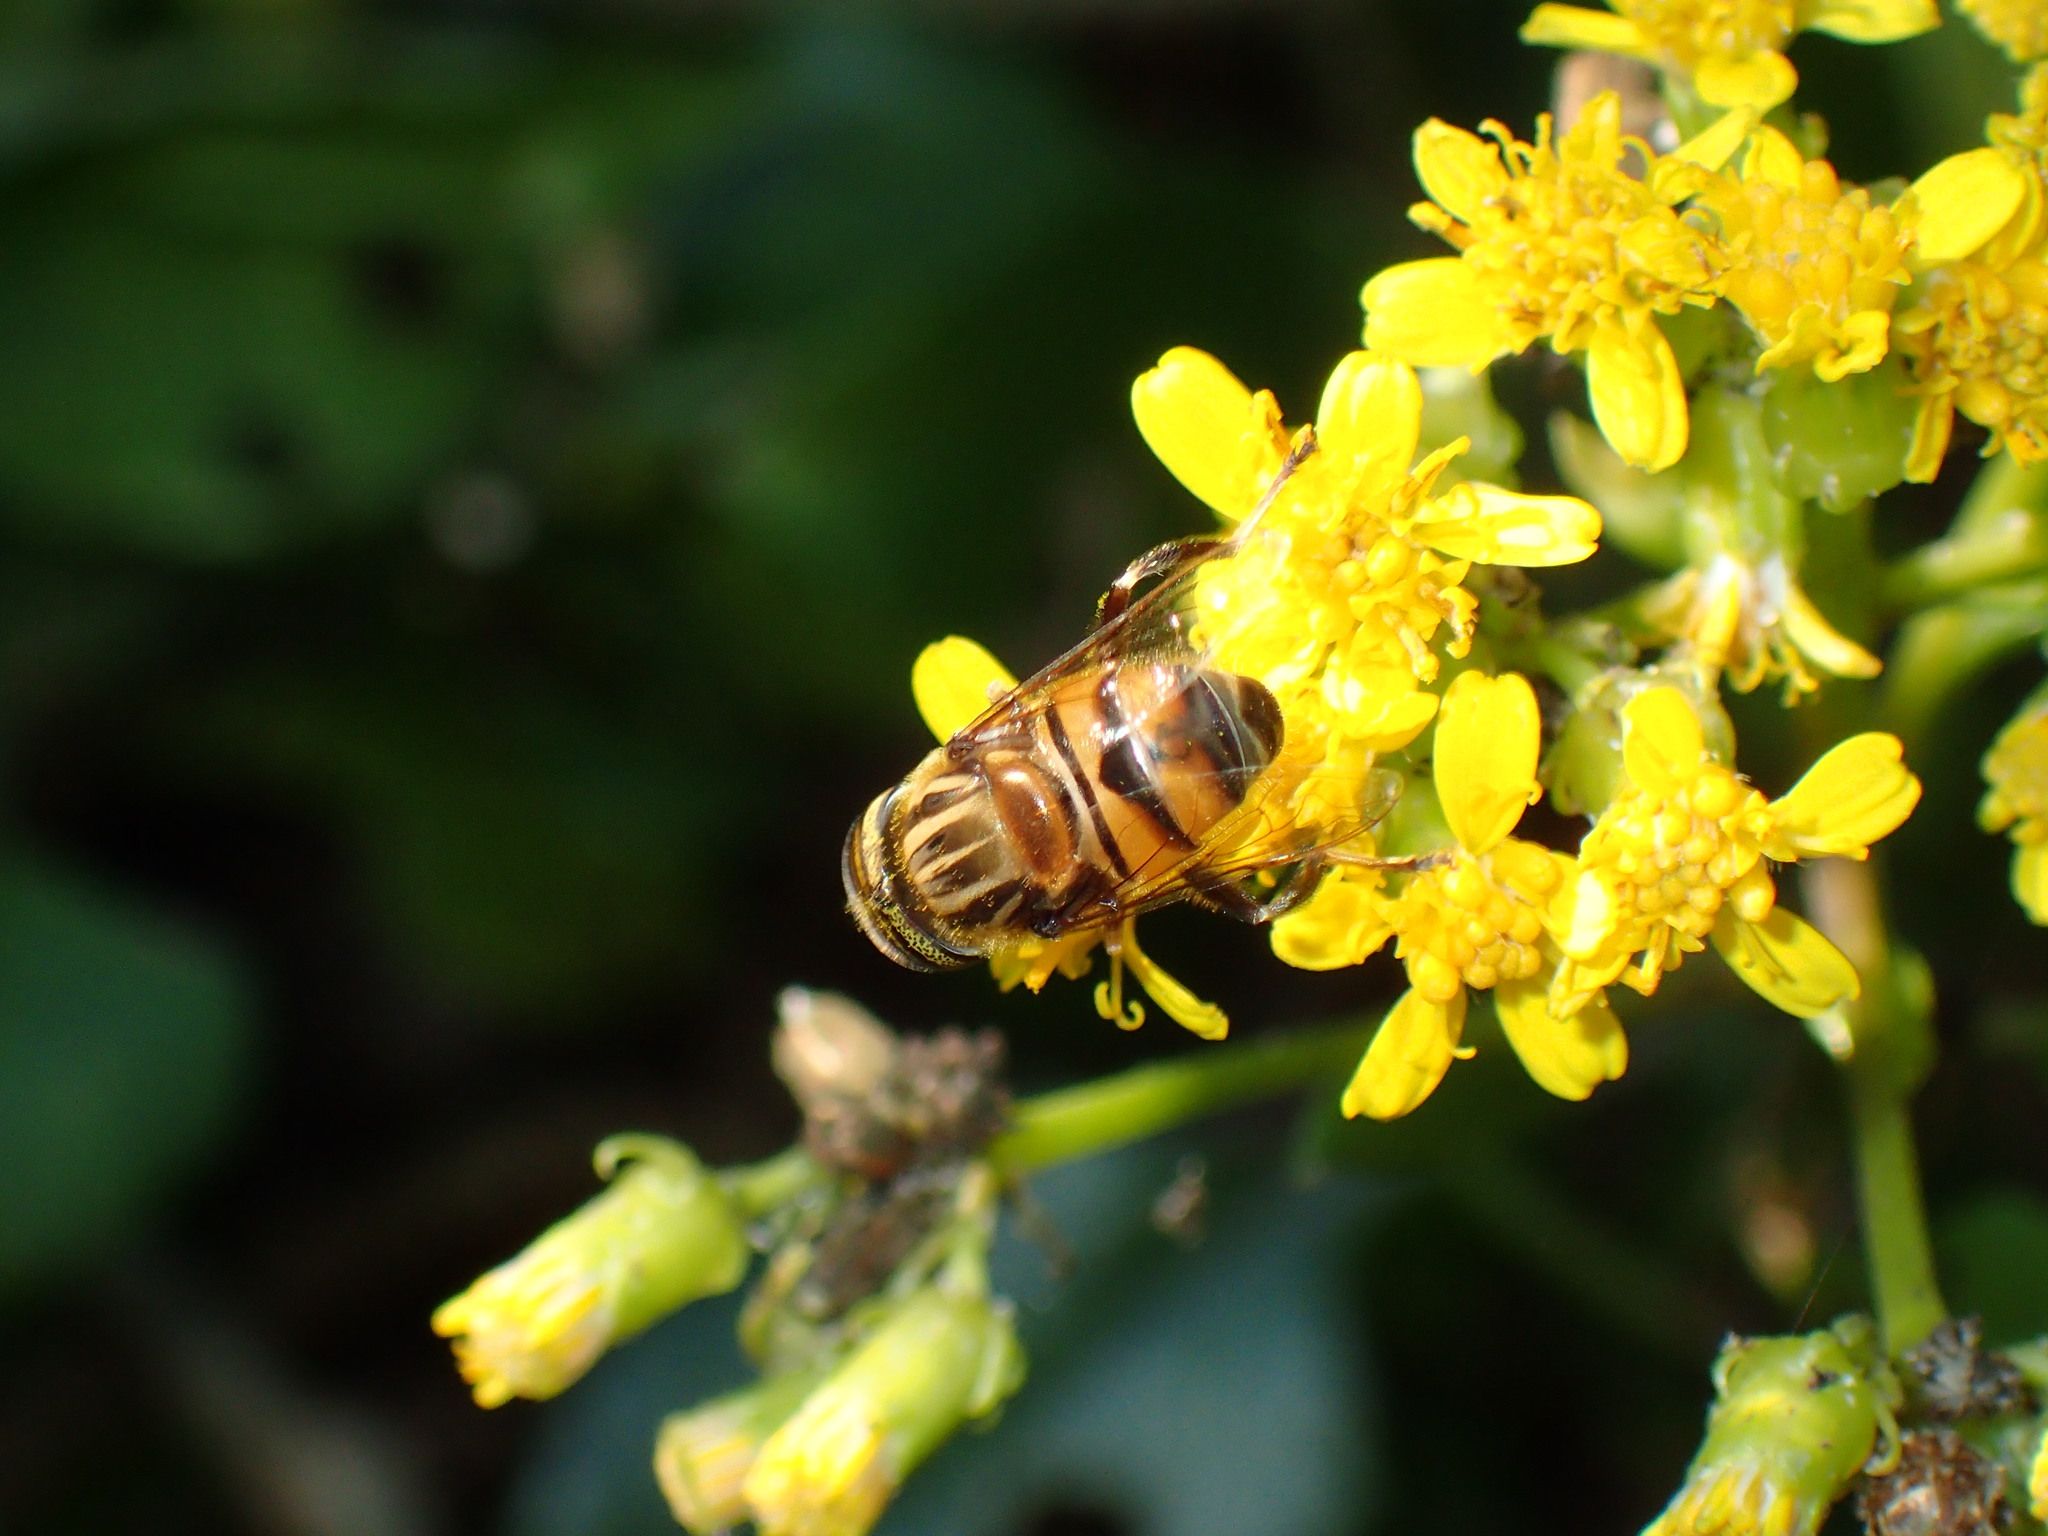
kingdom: Animalia
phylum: Arthropoda
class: Insecta
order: Hymenoptera
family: Apidae
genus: Apis
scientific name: Apis mellifera
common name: Honey bee
